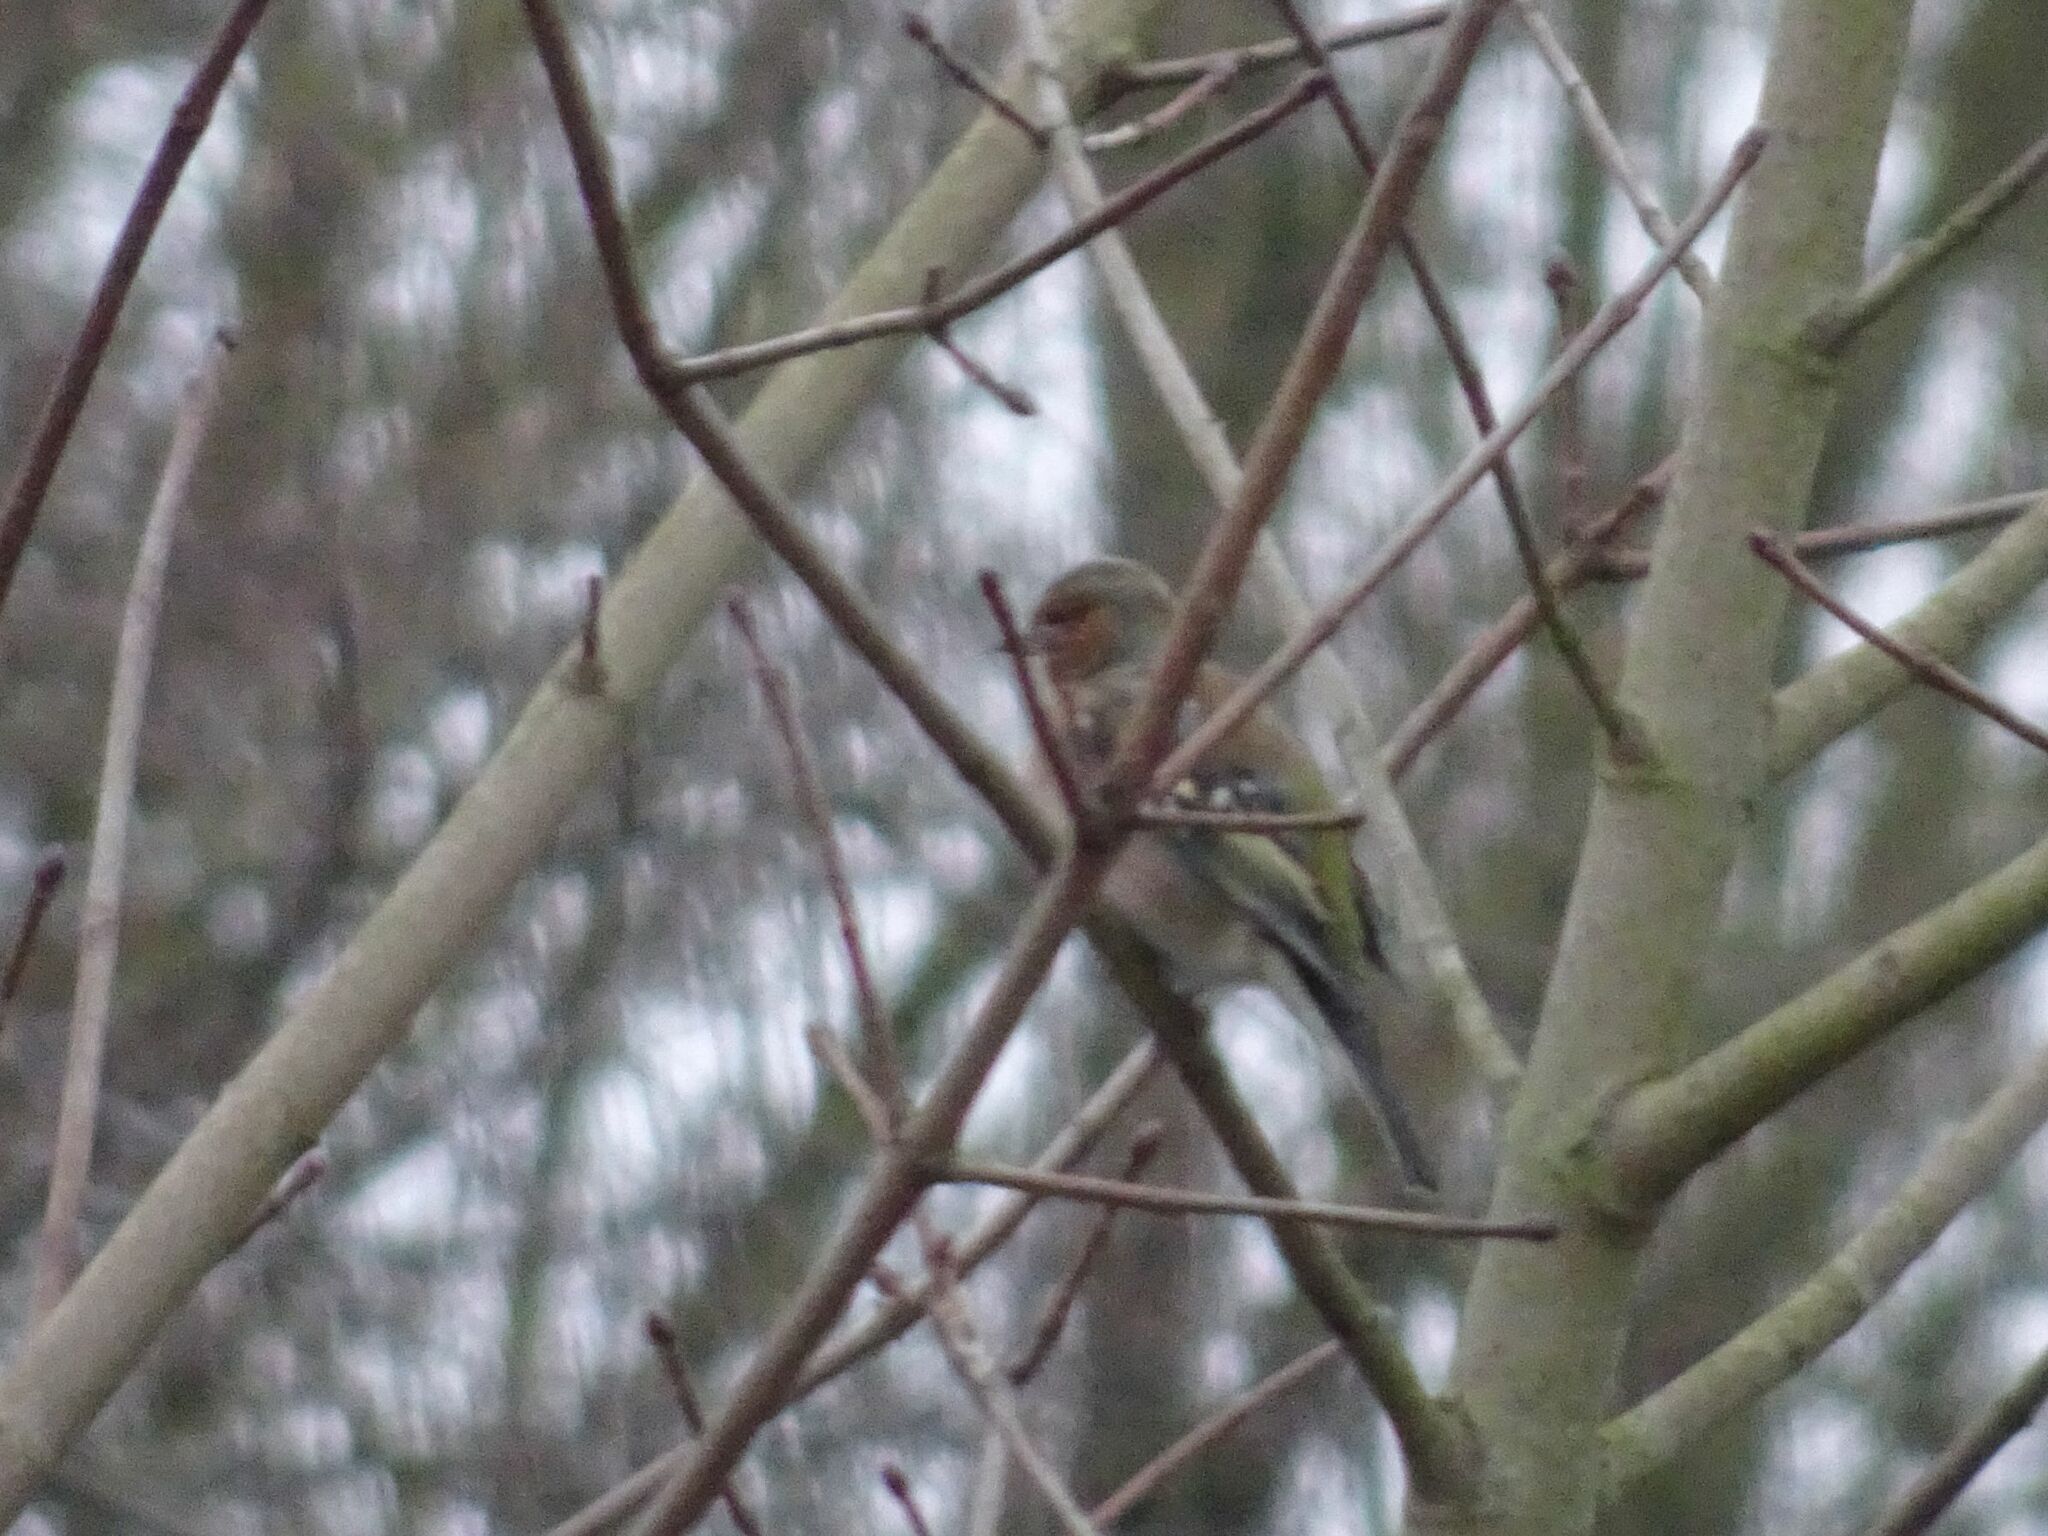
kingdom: Animalia
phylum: Chordata
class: Aves
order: Passeriformes
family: Fringillidae
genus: Fringilla
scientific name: Fringilla coelebs
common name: Common chaffinch
